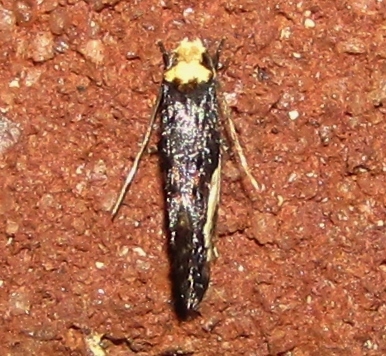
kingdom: Animalia
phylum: Arthropoda
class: Insecta
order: Lepidoptera
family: Tineidae
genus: Monopis
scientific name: Monopis longella
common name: Pavlovski's monopis moth
